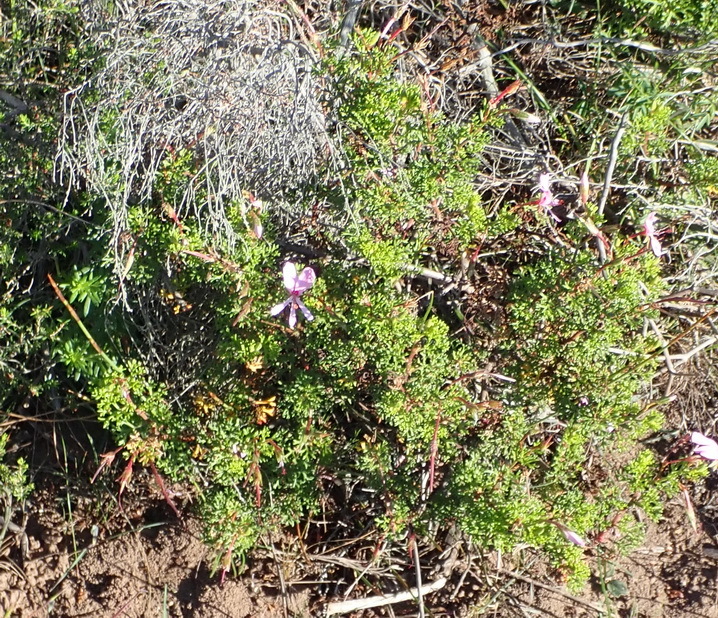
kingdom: Plantae
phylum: Tracheophyta
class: Magnoliopsida
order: Geraniales
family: Geraniaceae
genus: Pelargonium
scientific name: Pelargonium fruticosum
